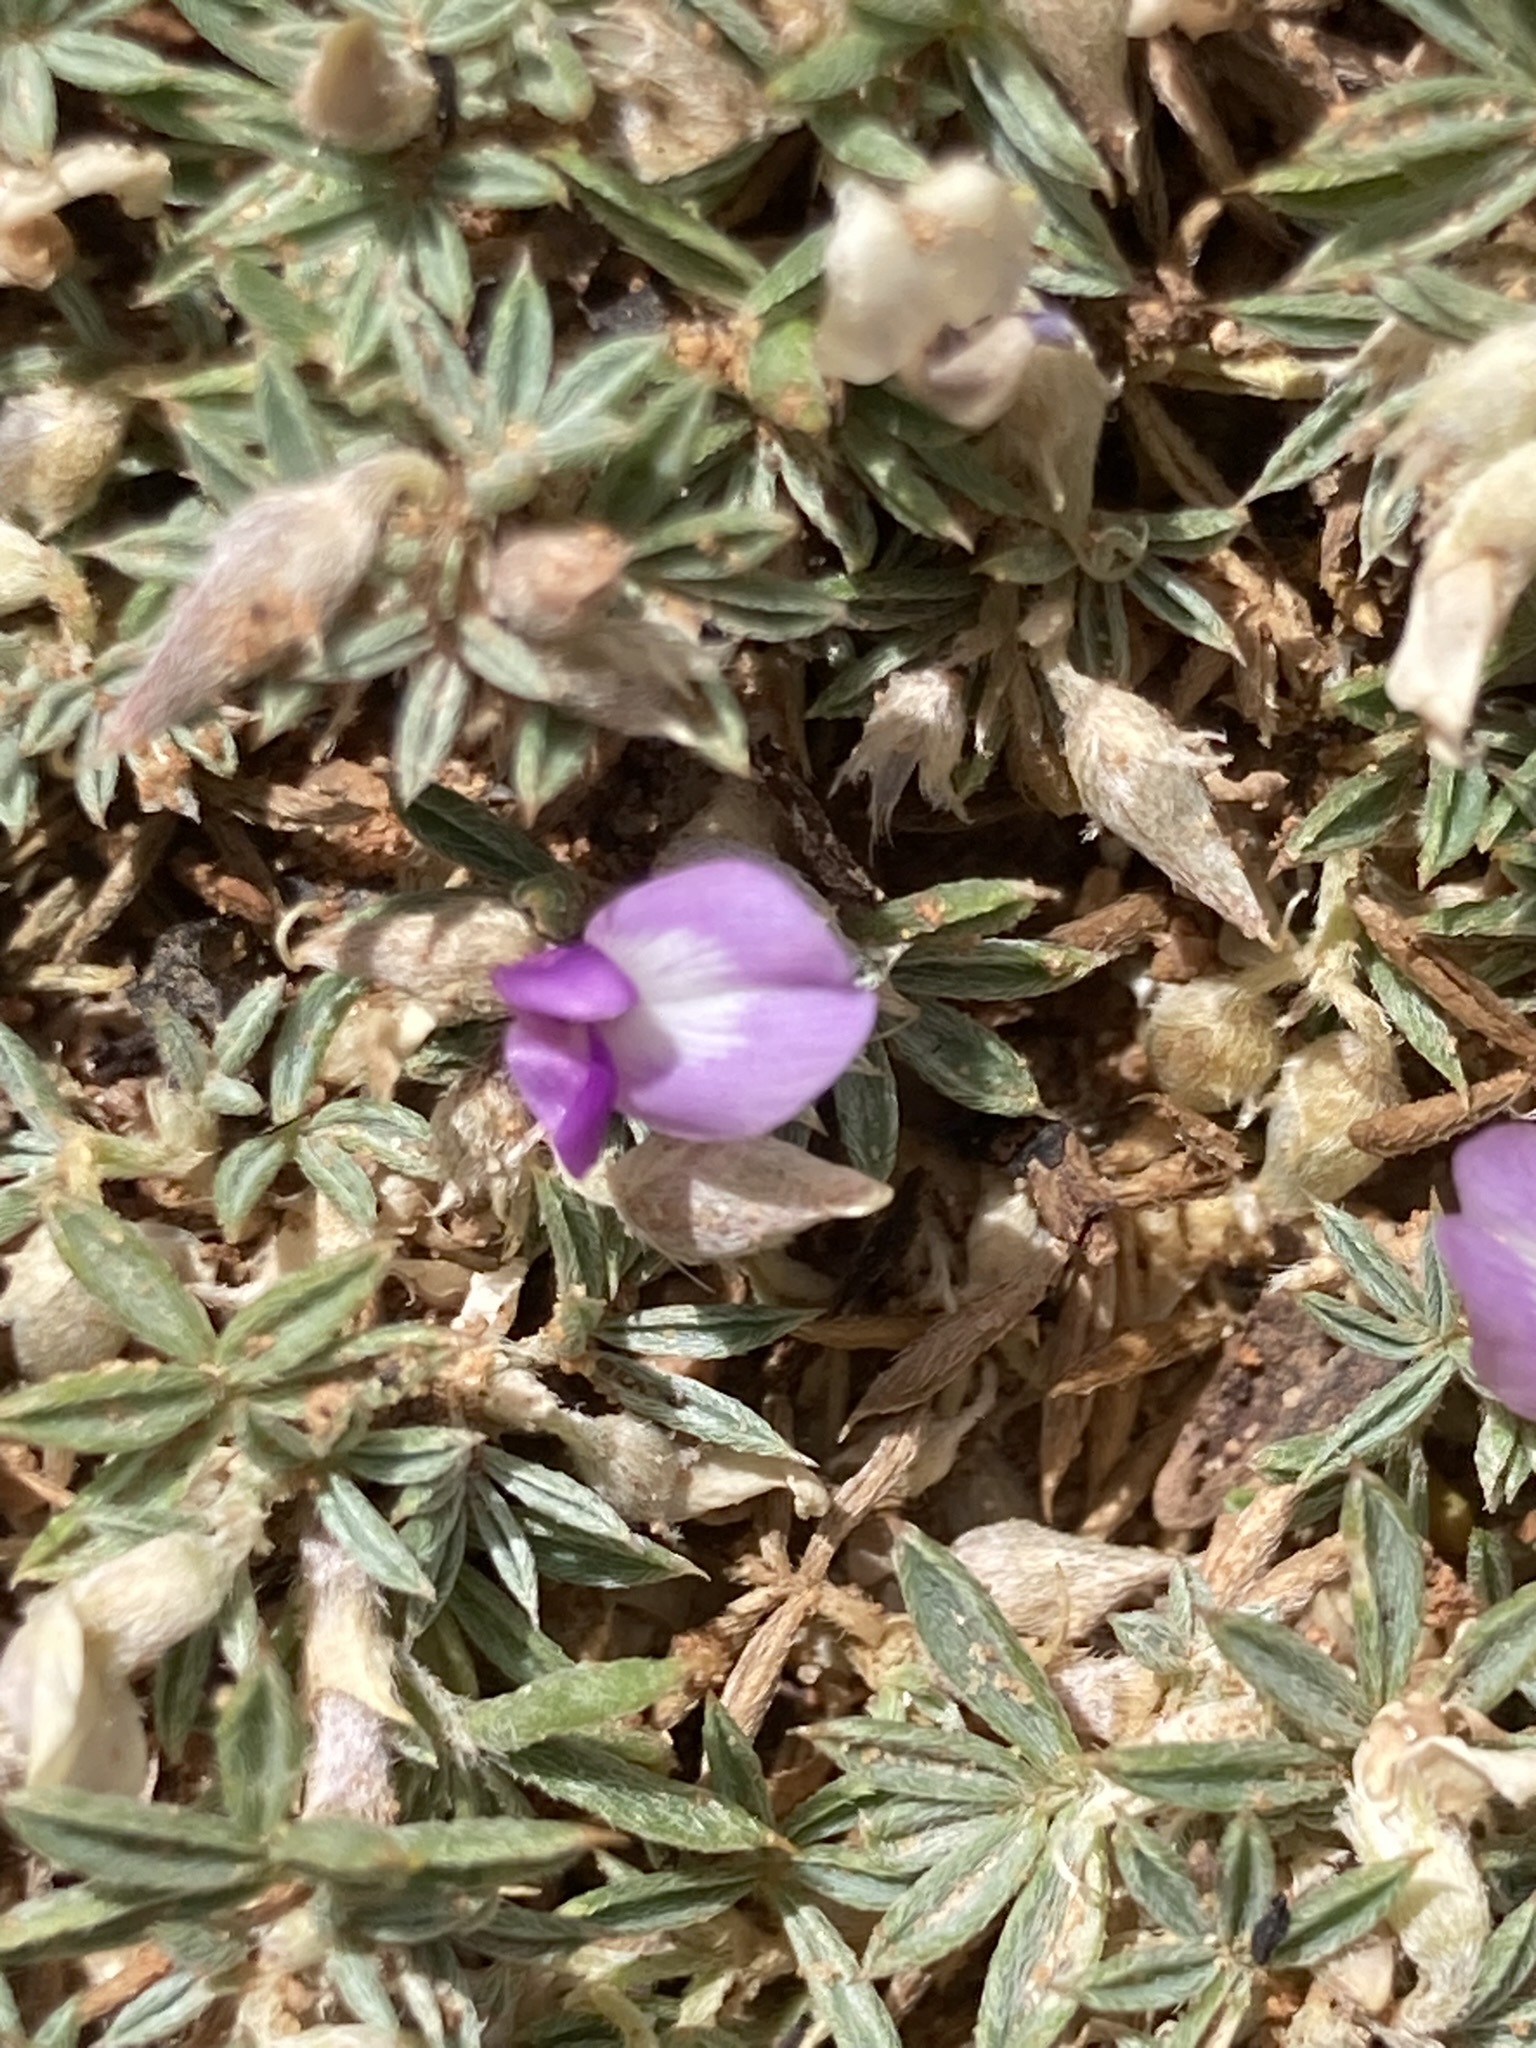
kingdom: Plantae
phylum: Tracheophyta
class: Magnoliopsida
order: Fabales
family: Fabaceae
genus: Astragalus
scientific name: Astragalus kentrophyta
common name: Prickly milk-vetch
